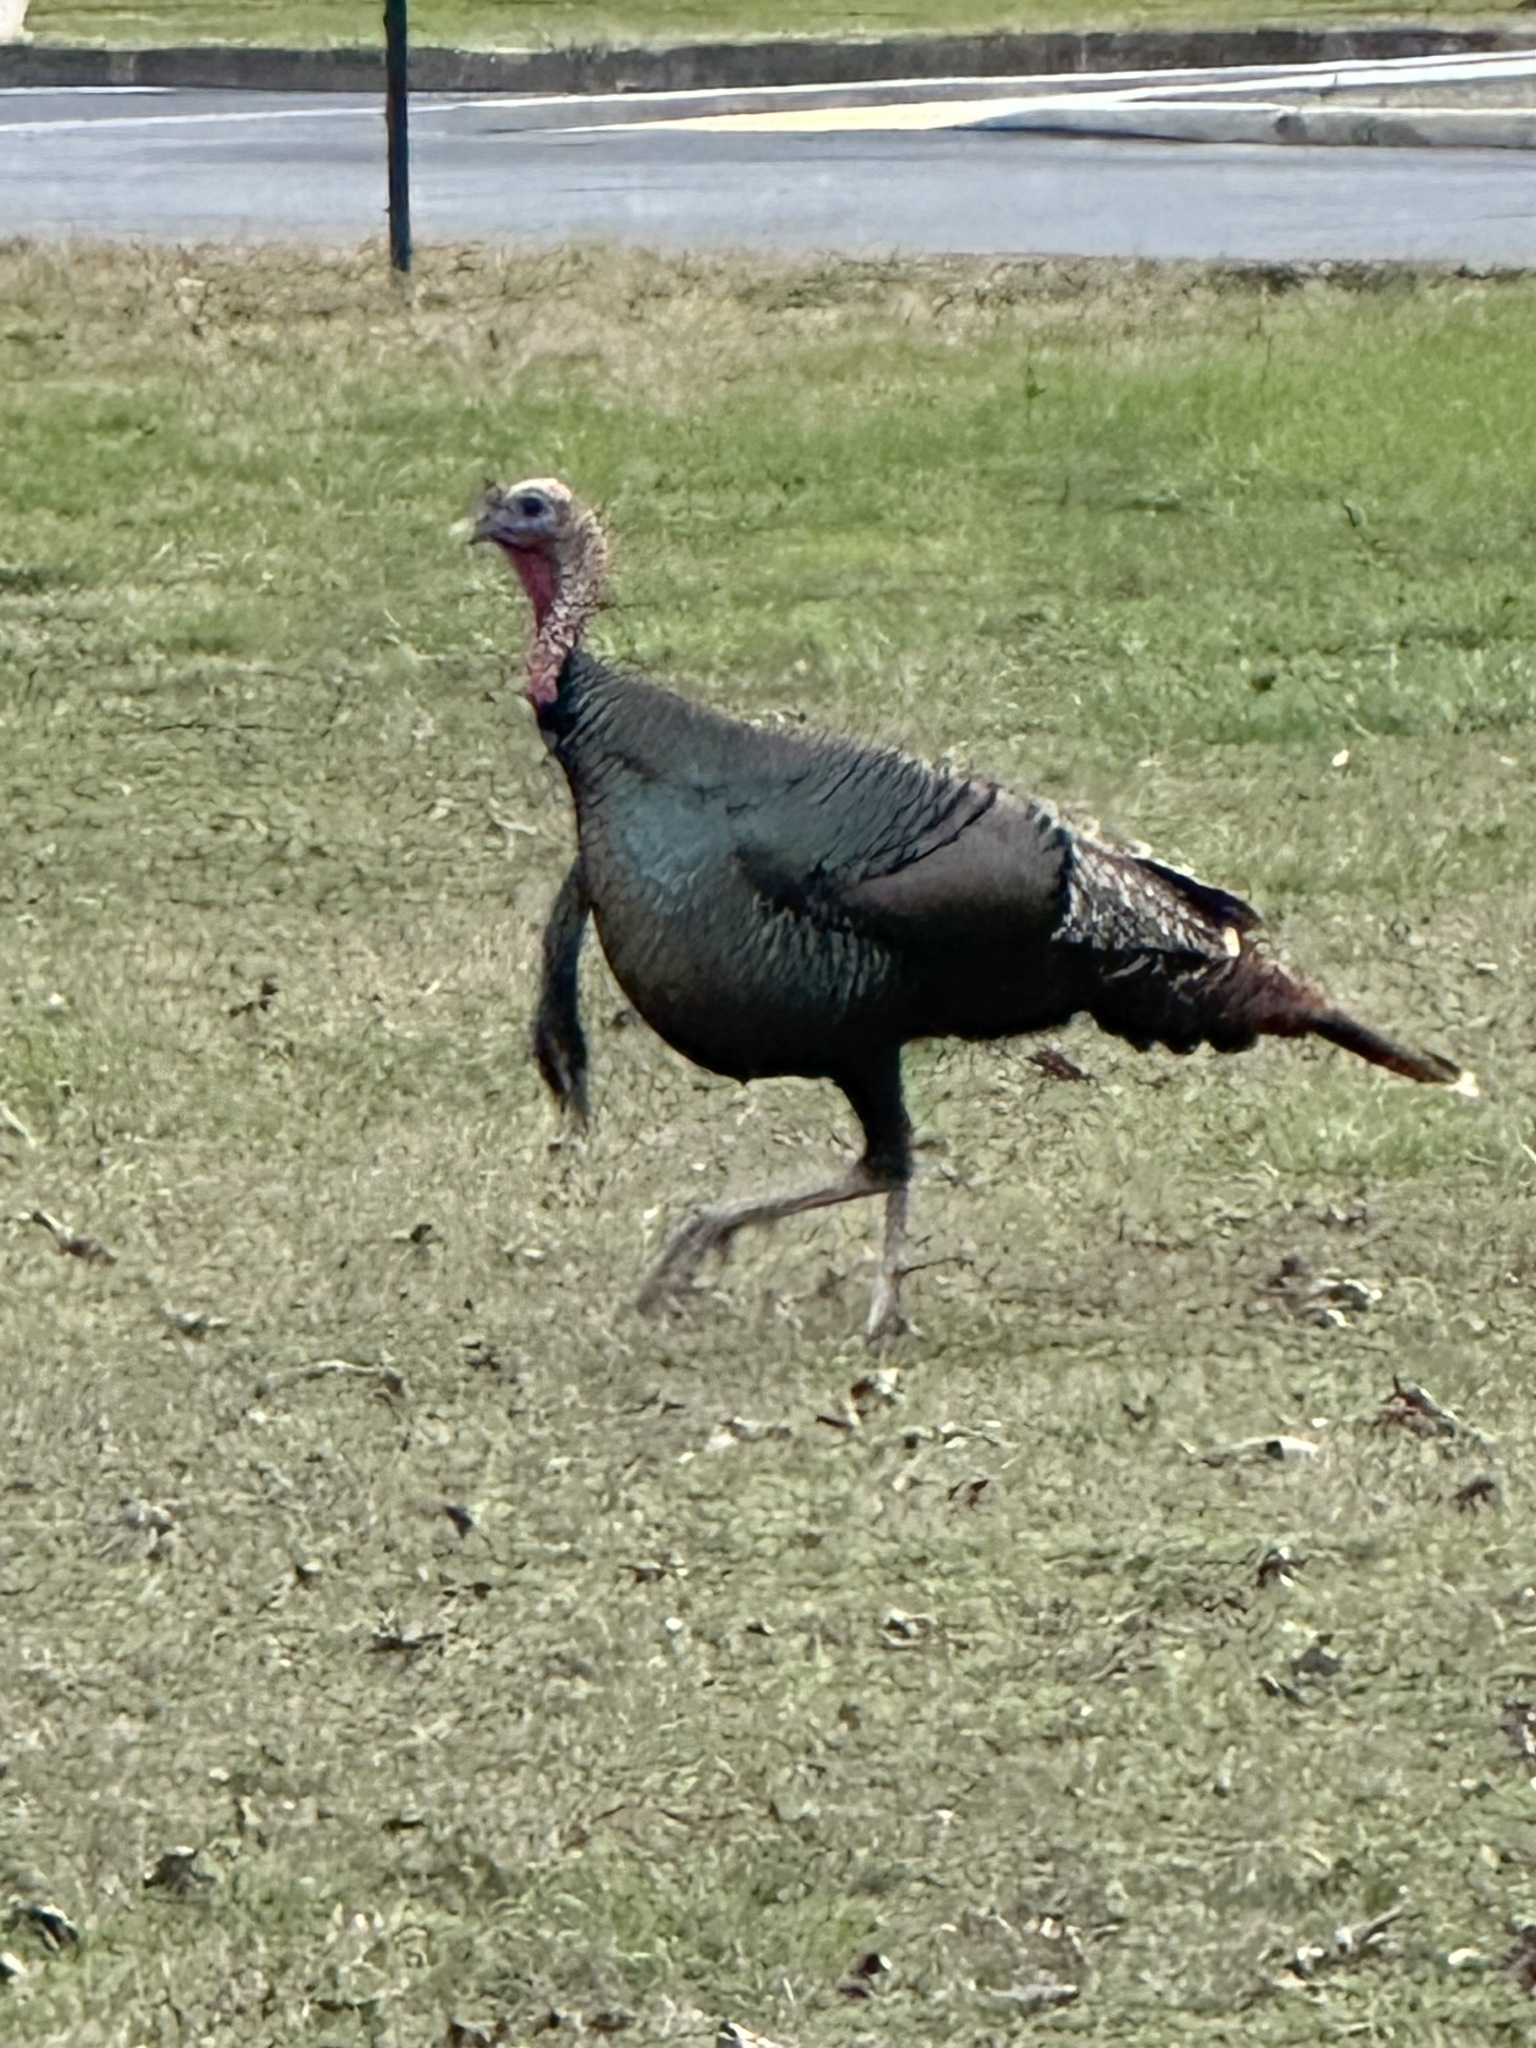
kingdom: Animalia
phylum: Chordata
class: Aves
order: Galliformes
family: Phasianidae
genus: Meleagris
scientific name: Meleagris gallopavo
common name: Wild turkey
